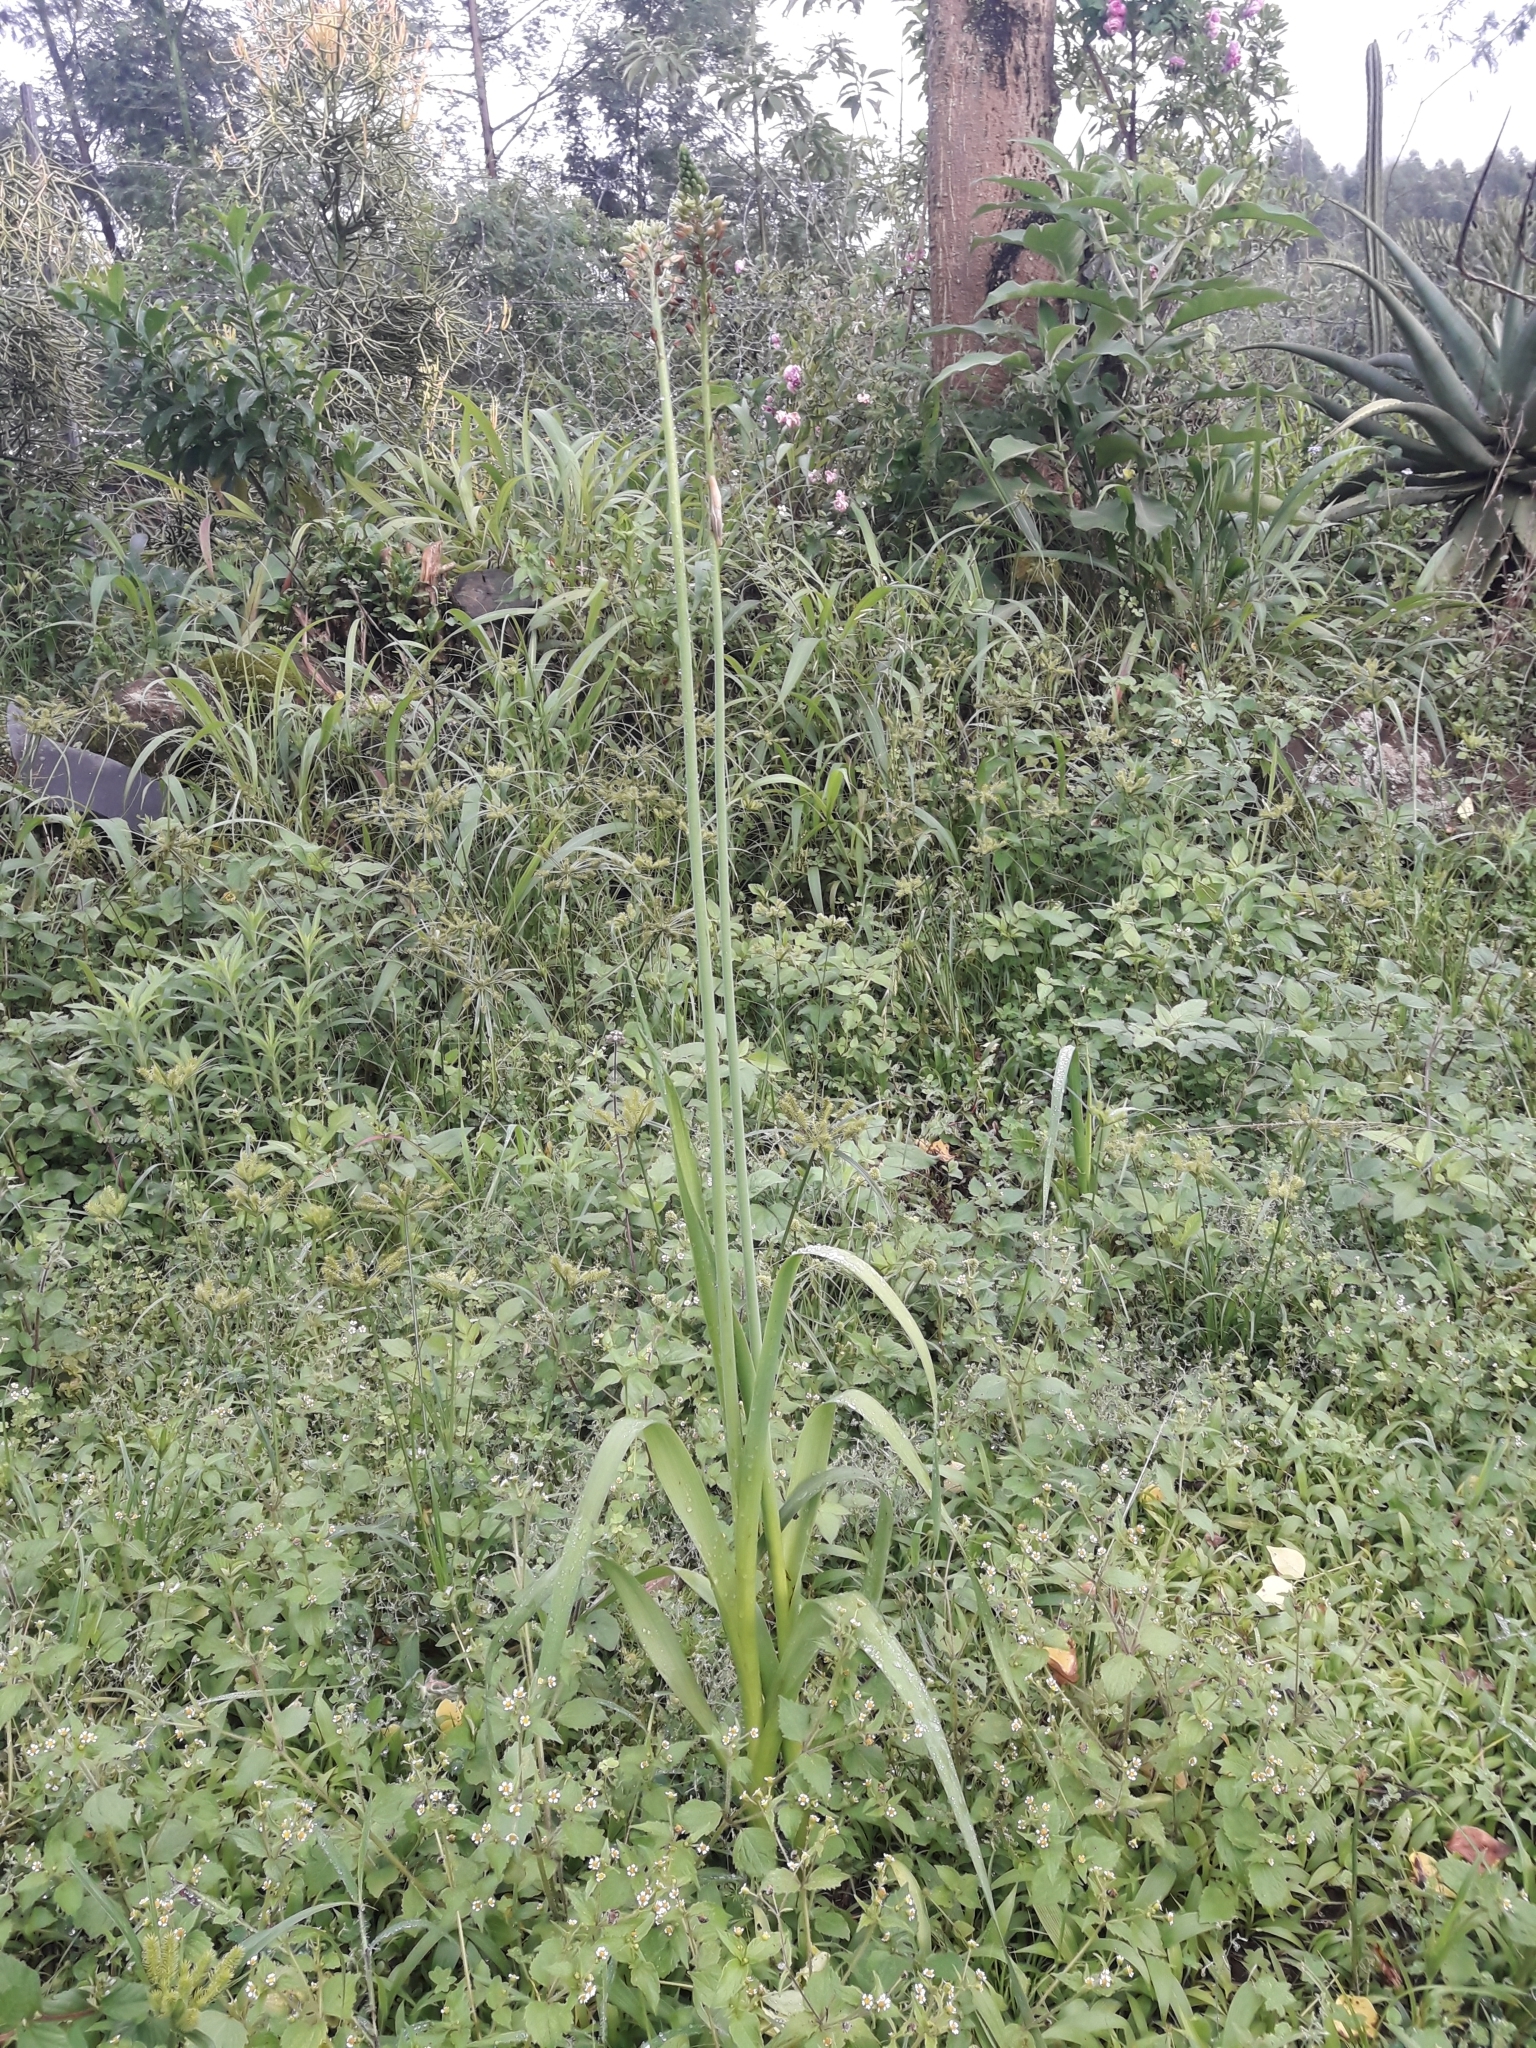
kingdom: Plantae
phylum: Tracheophyta
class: Liliopsida
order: Asparagales
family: Asparagaceae
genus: Albuca
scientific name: Albuca bracteata
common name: Sea-onion
